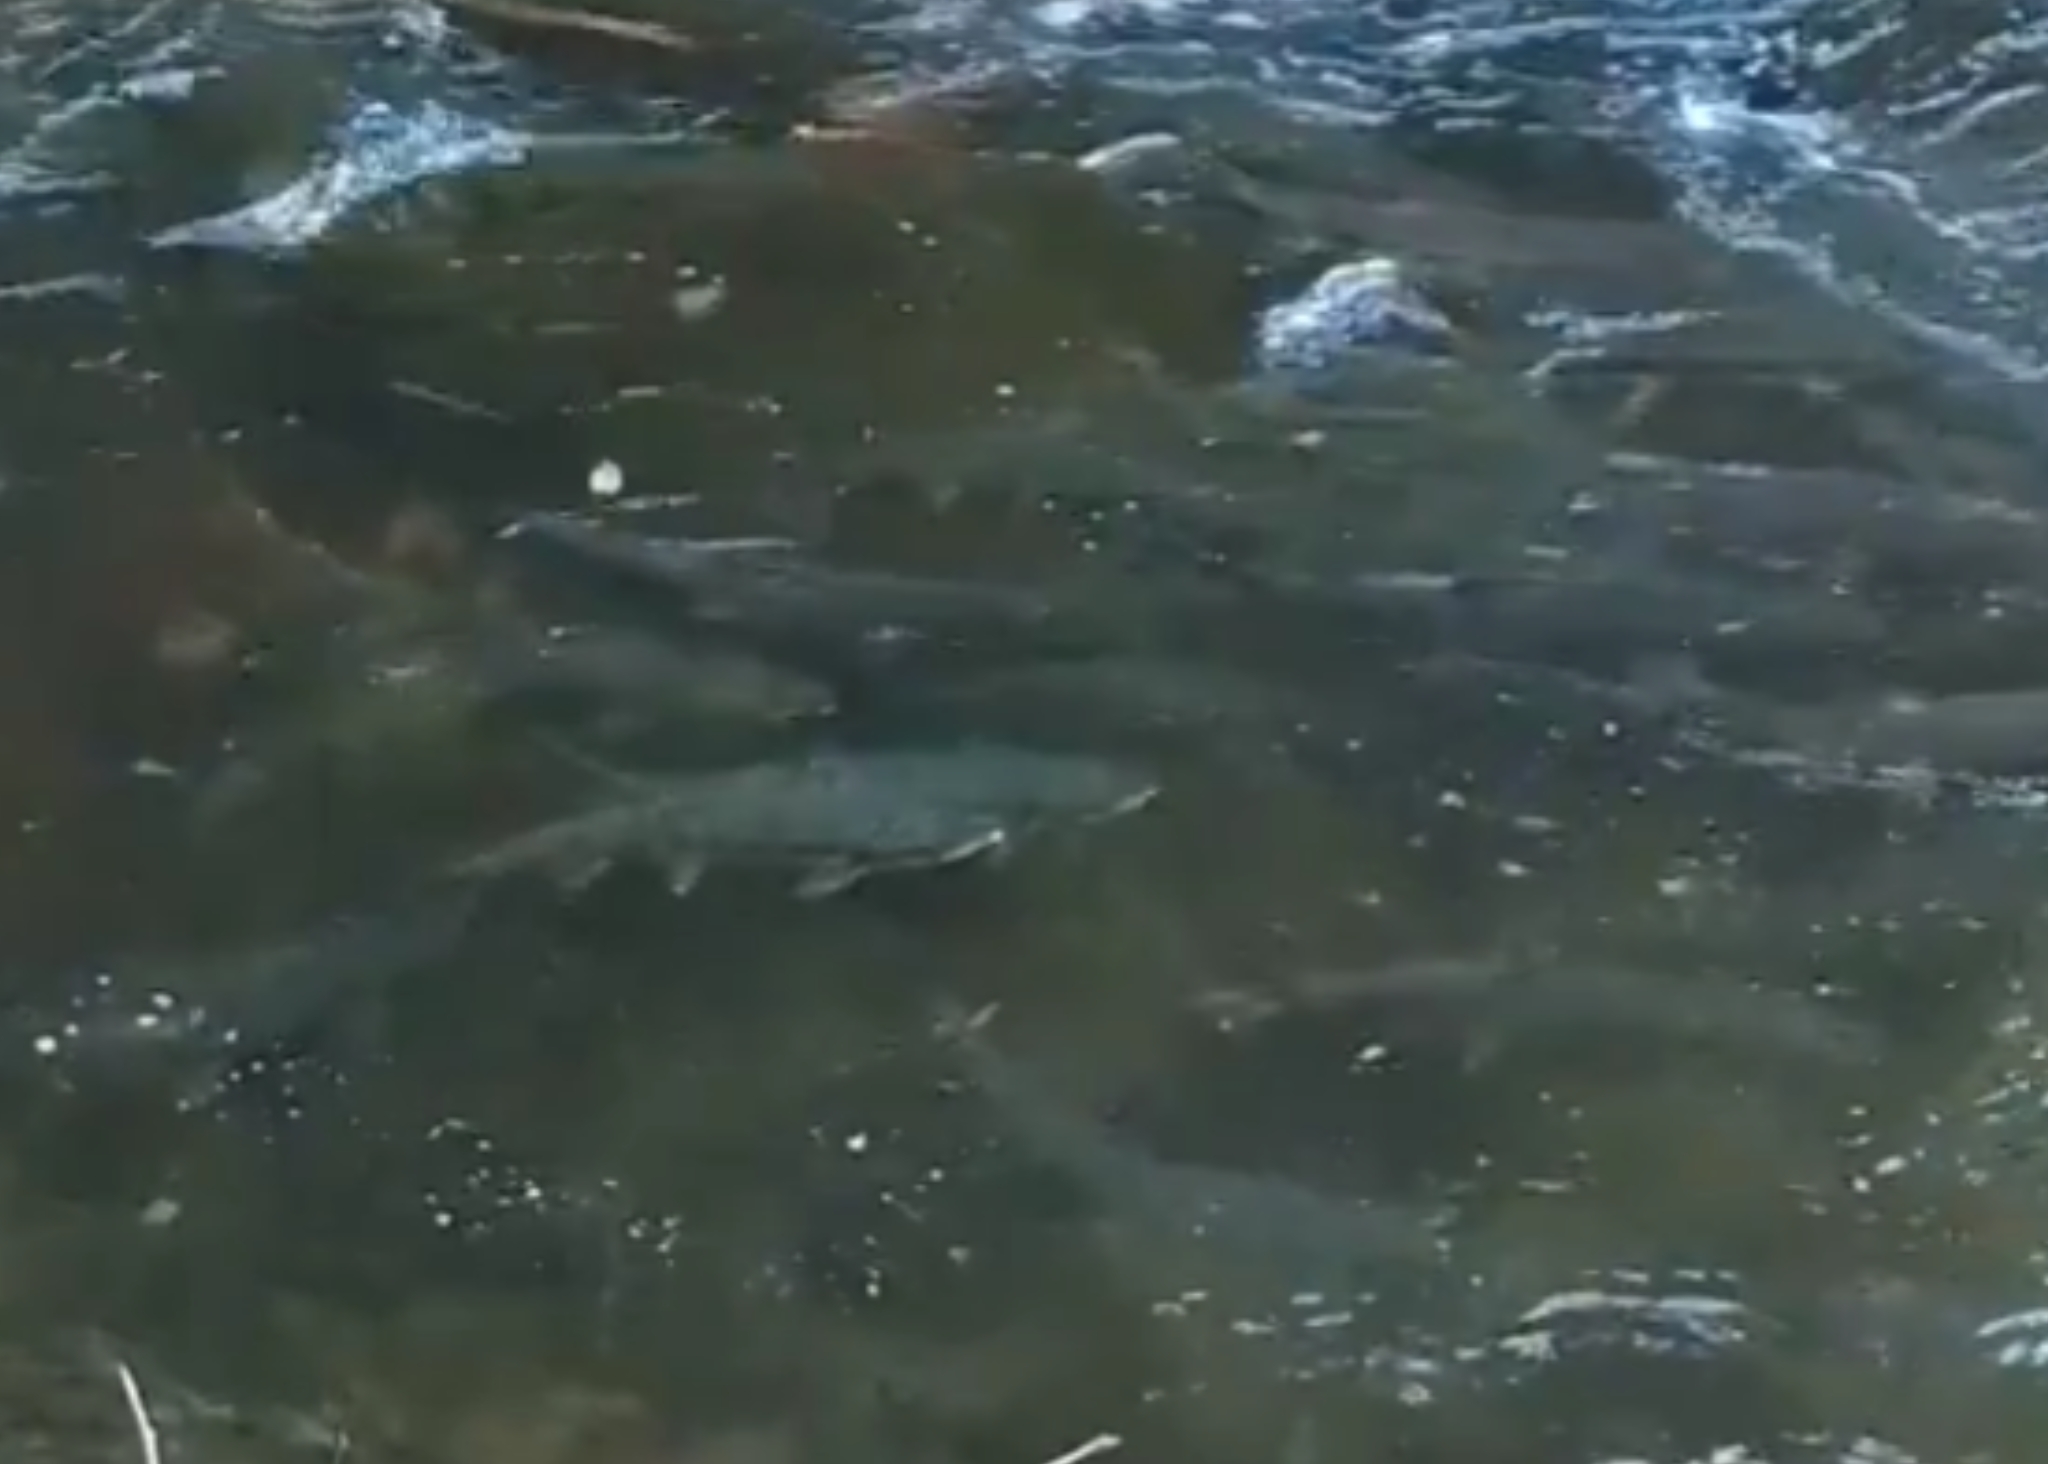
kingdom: Animalia
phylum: Chordata
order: Salmoniformes
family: Salmonidae
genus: Oncorhynchus
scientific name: Oncorhynchus keta
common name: Chum salmon
